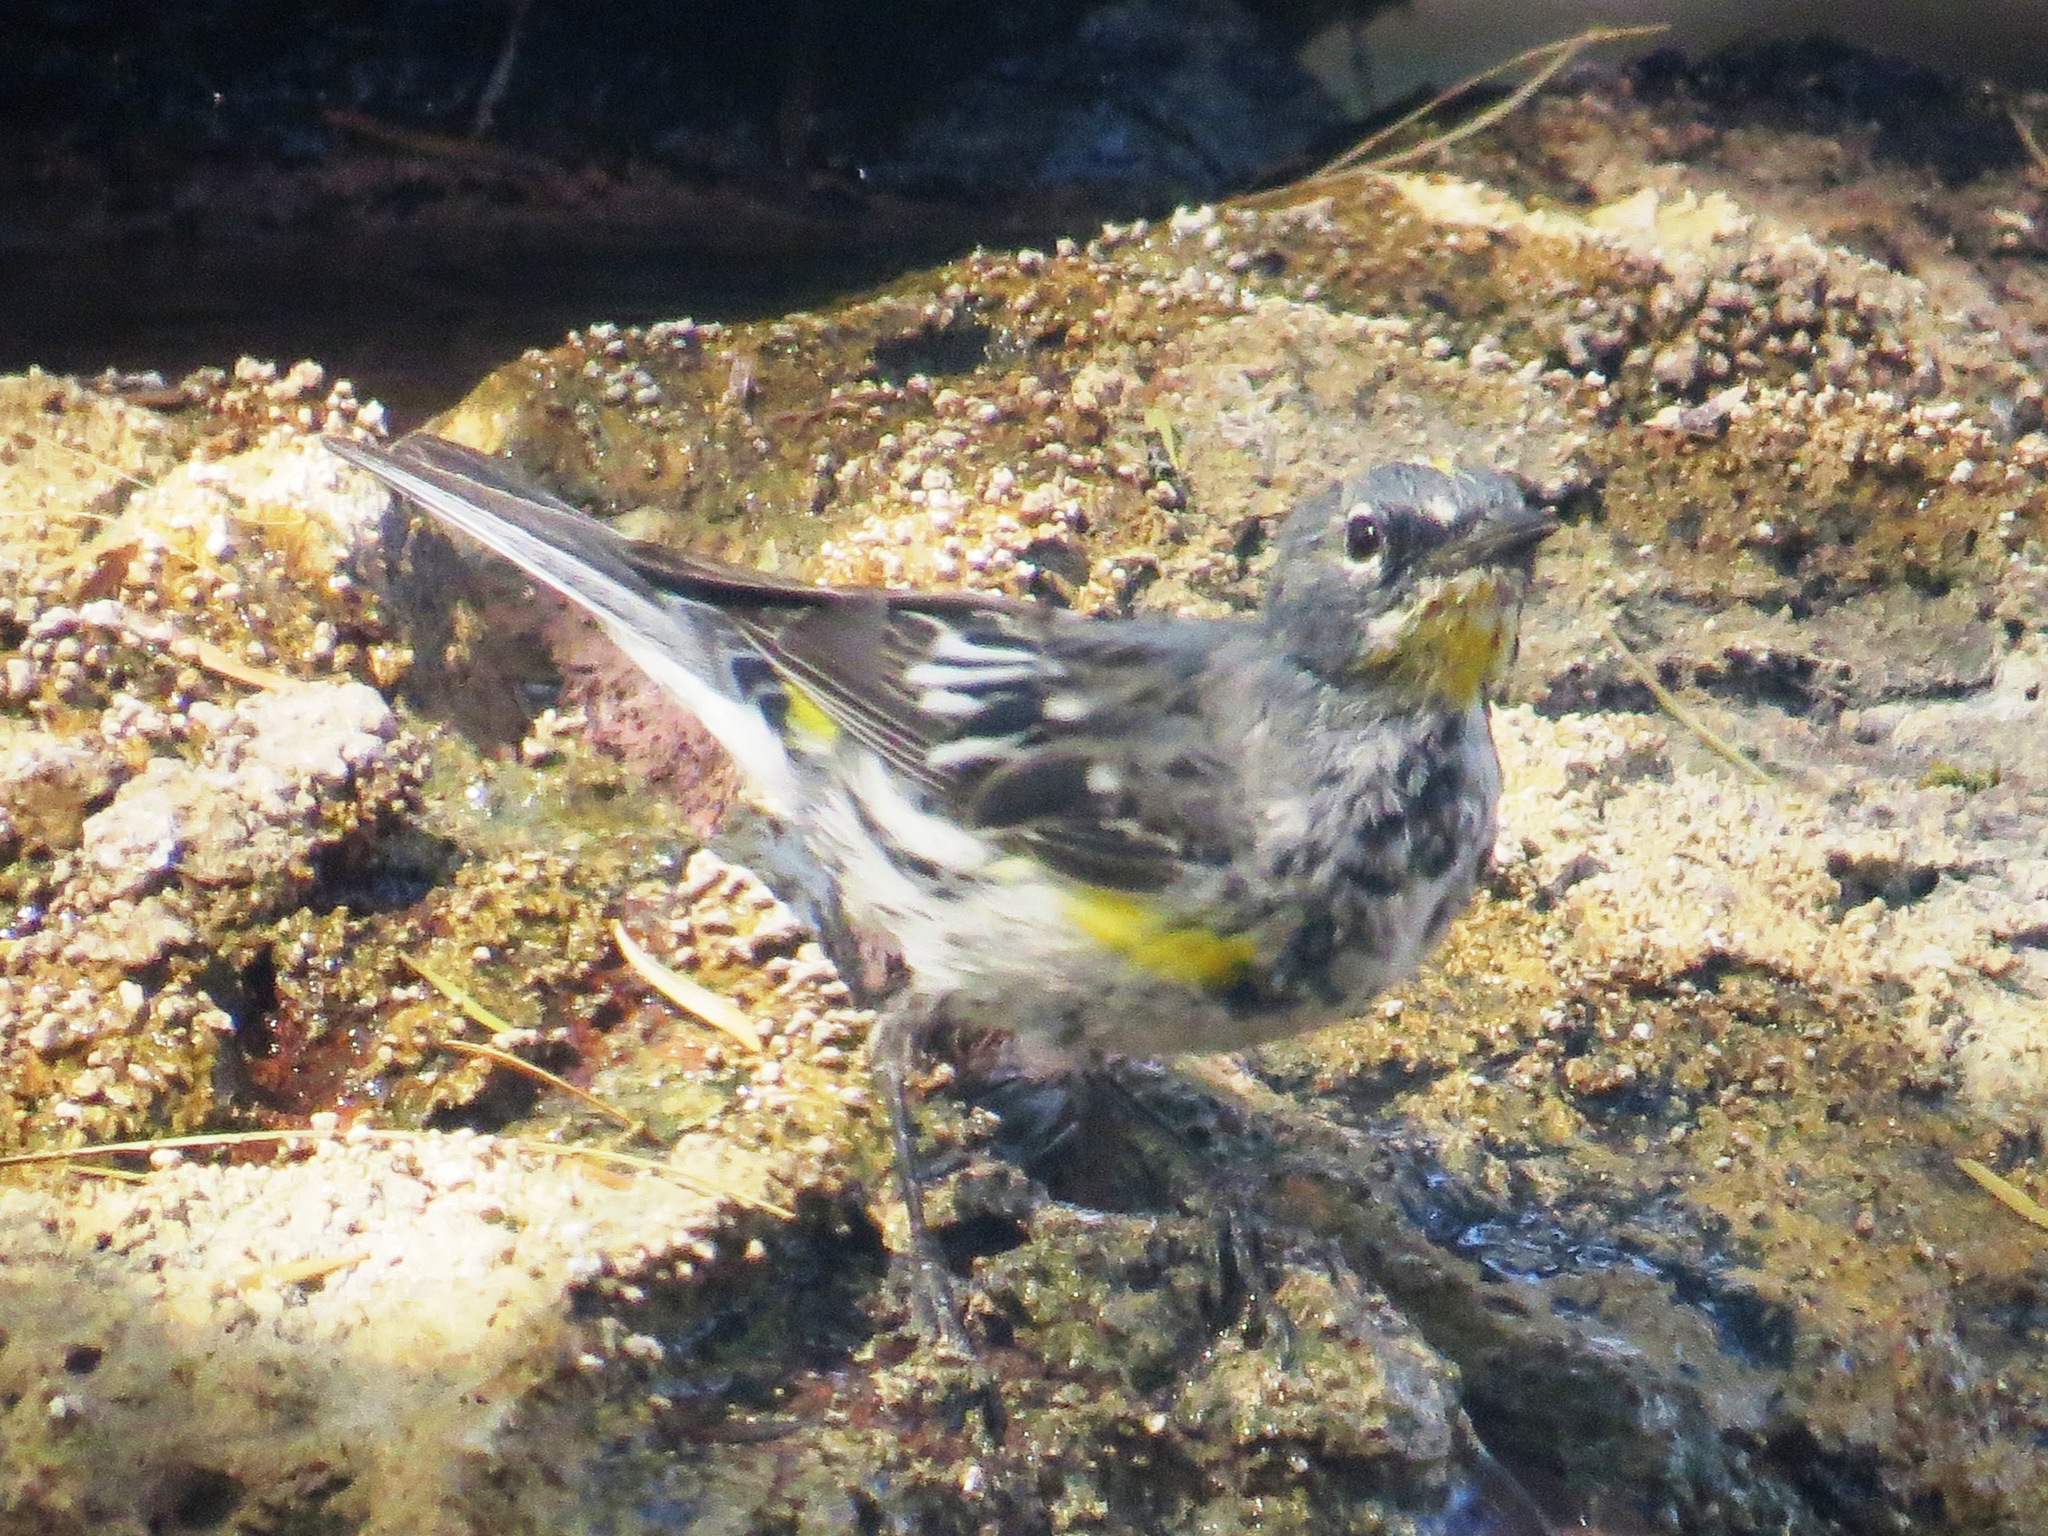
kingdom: Animalia
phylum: Chordata
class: Aves
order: Passeriformes
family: Parulidae
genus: Setophaga
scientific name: Setophaga coronata
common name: Myrtle warbler
